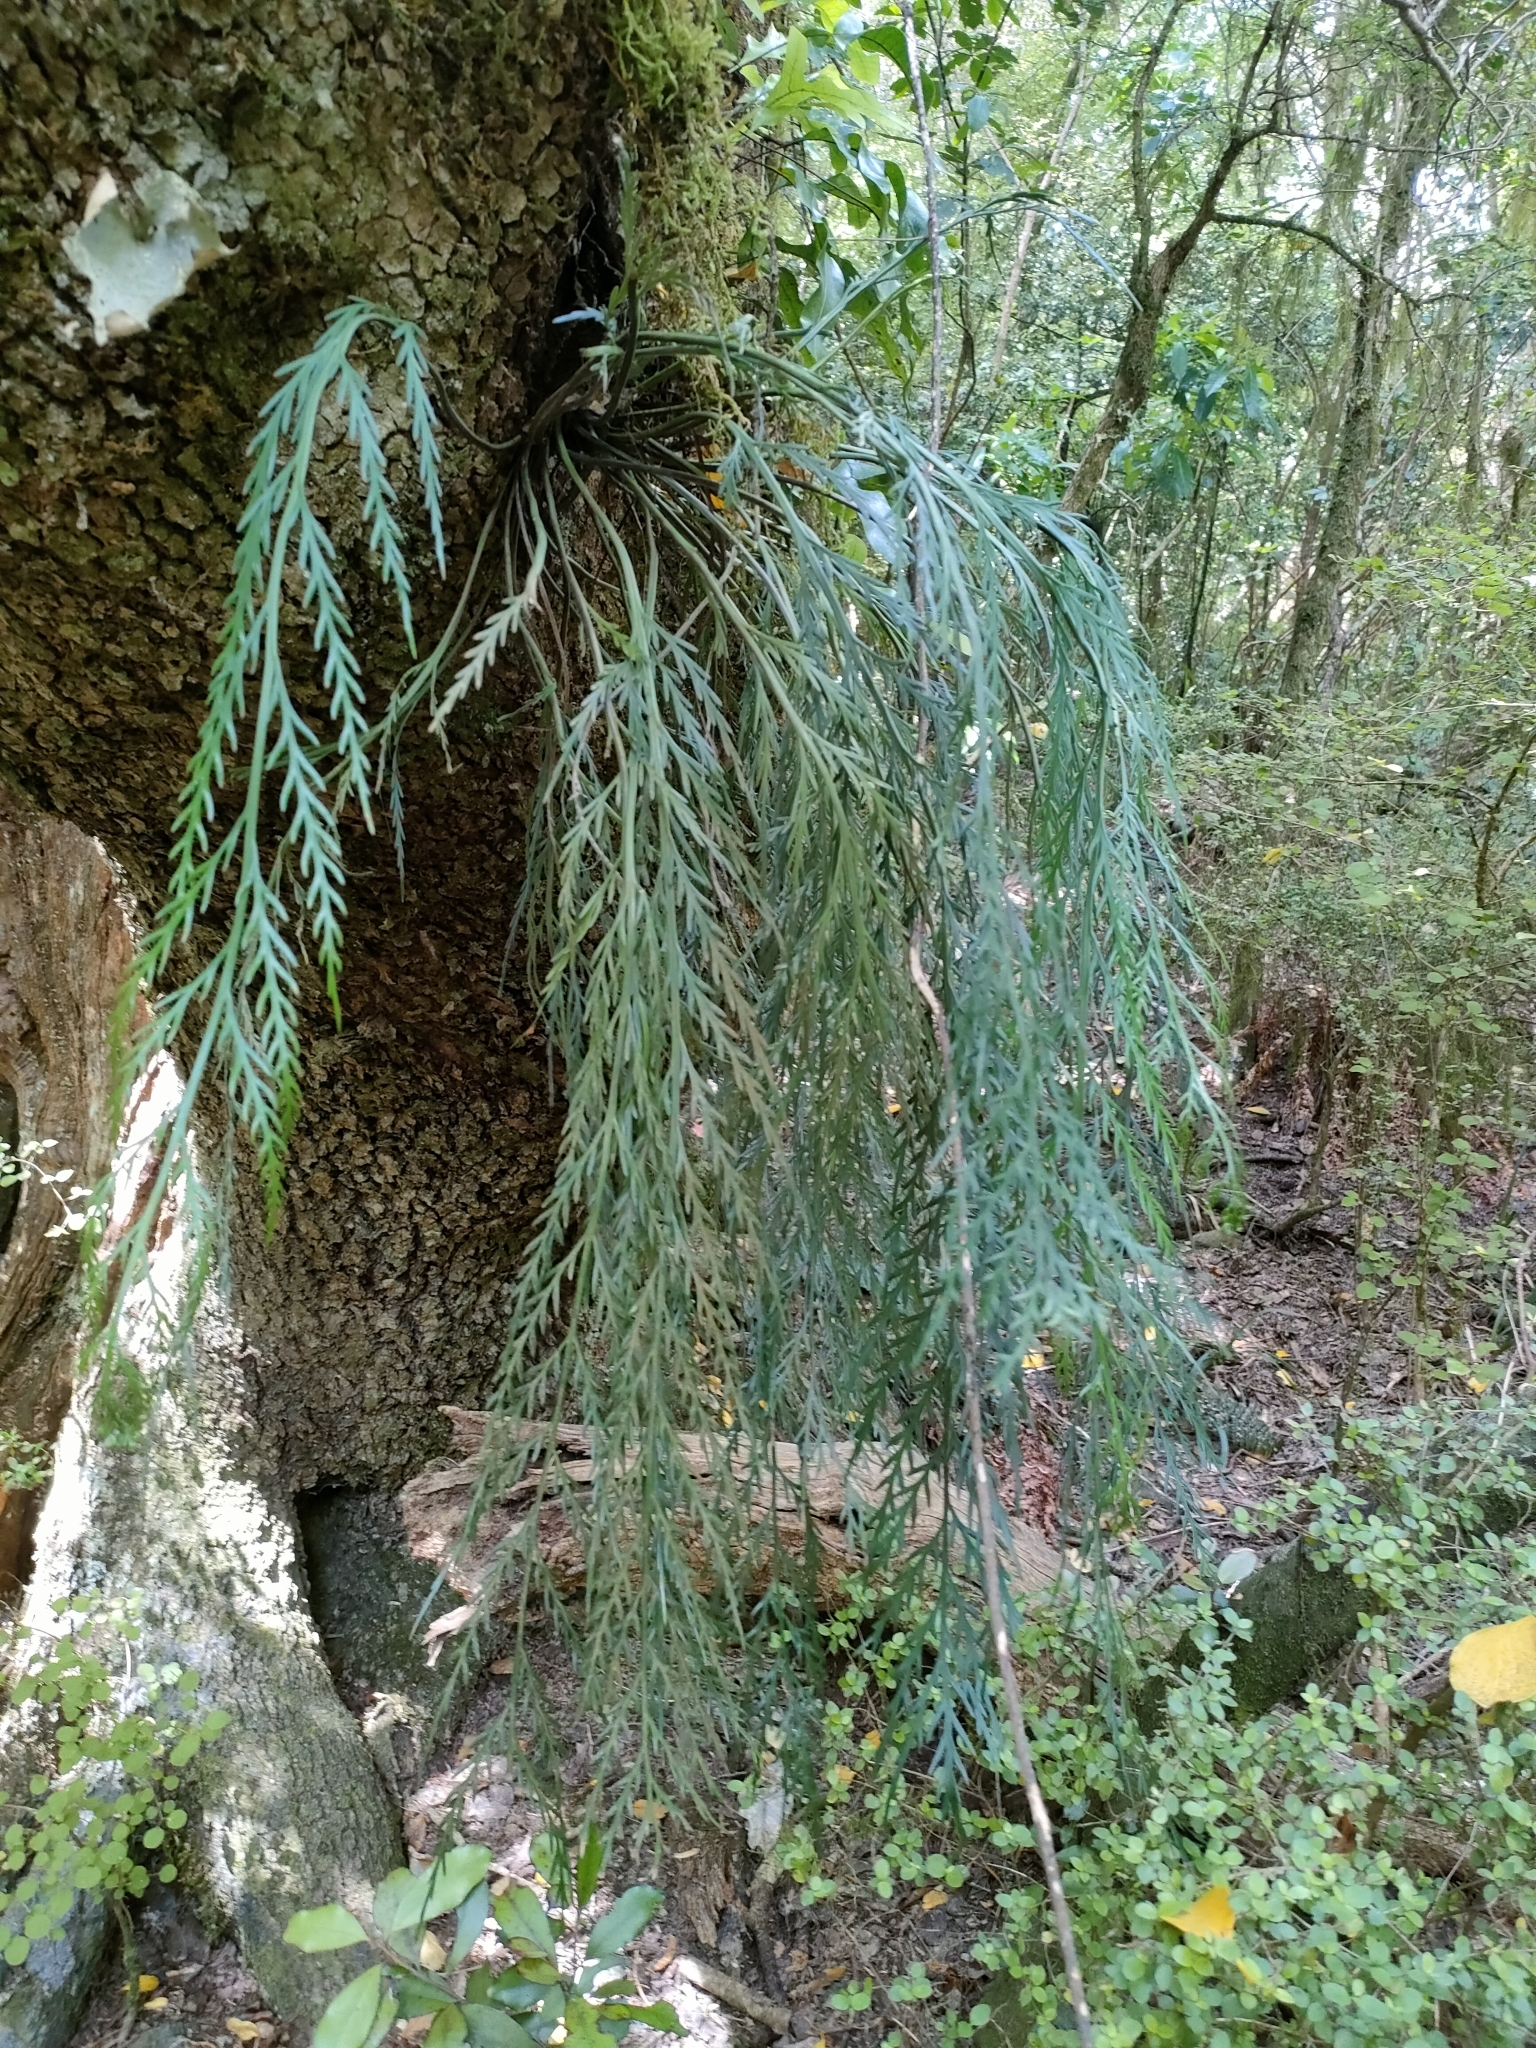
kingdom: Plantae
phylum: Tracheophyta
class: Polypodiopsida
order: Polypodiales
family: Aspleniaceae
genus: Asplenium
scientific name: Asplenium flaccidum
